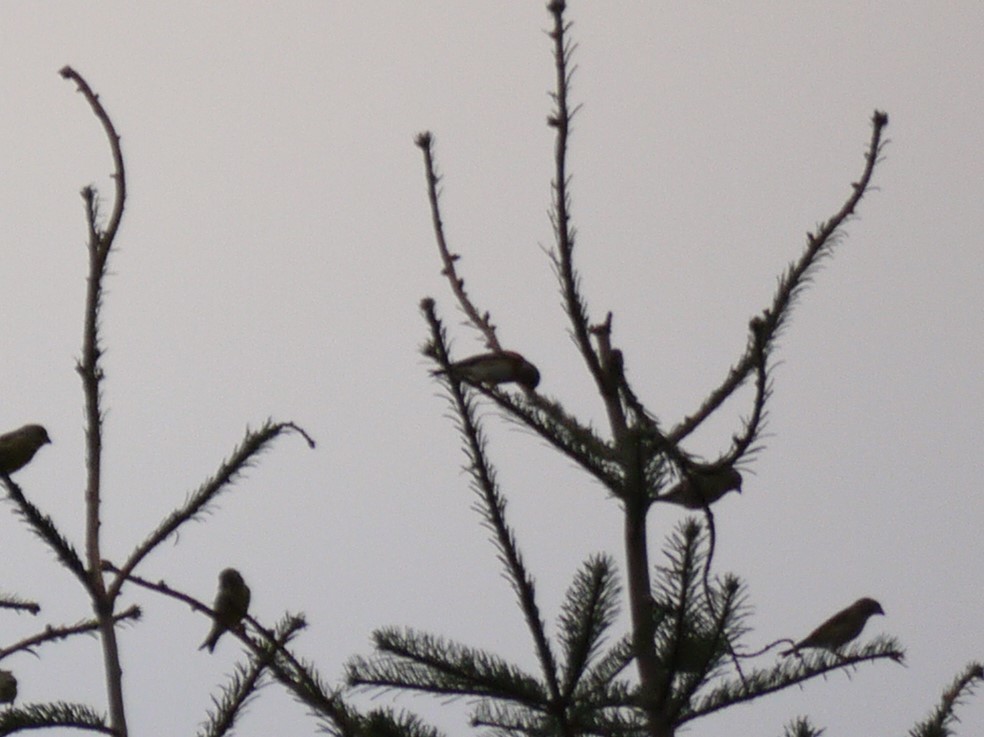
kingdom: Animalia
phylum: Chordata
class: Aves
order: Passeriformes
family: Fringillidae
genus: Linaria
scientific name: Linaria cannabina
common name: Common linnet
